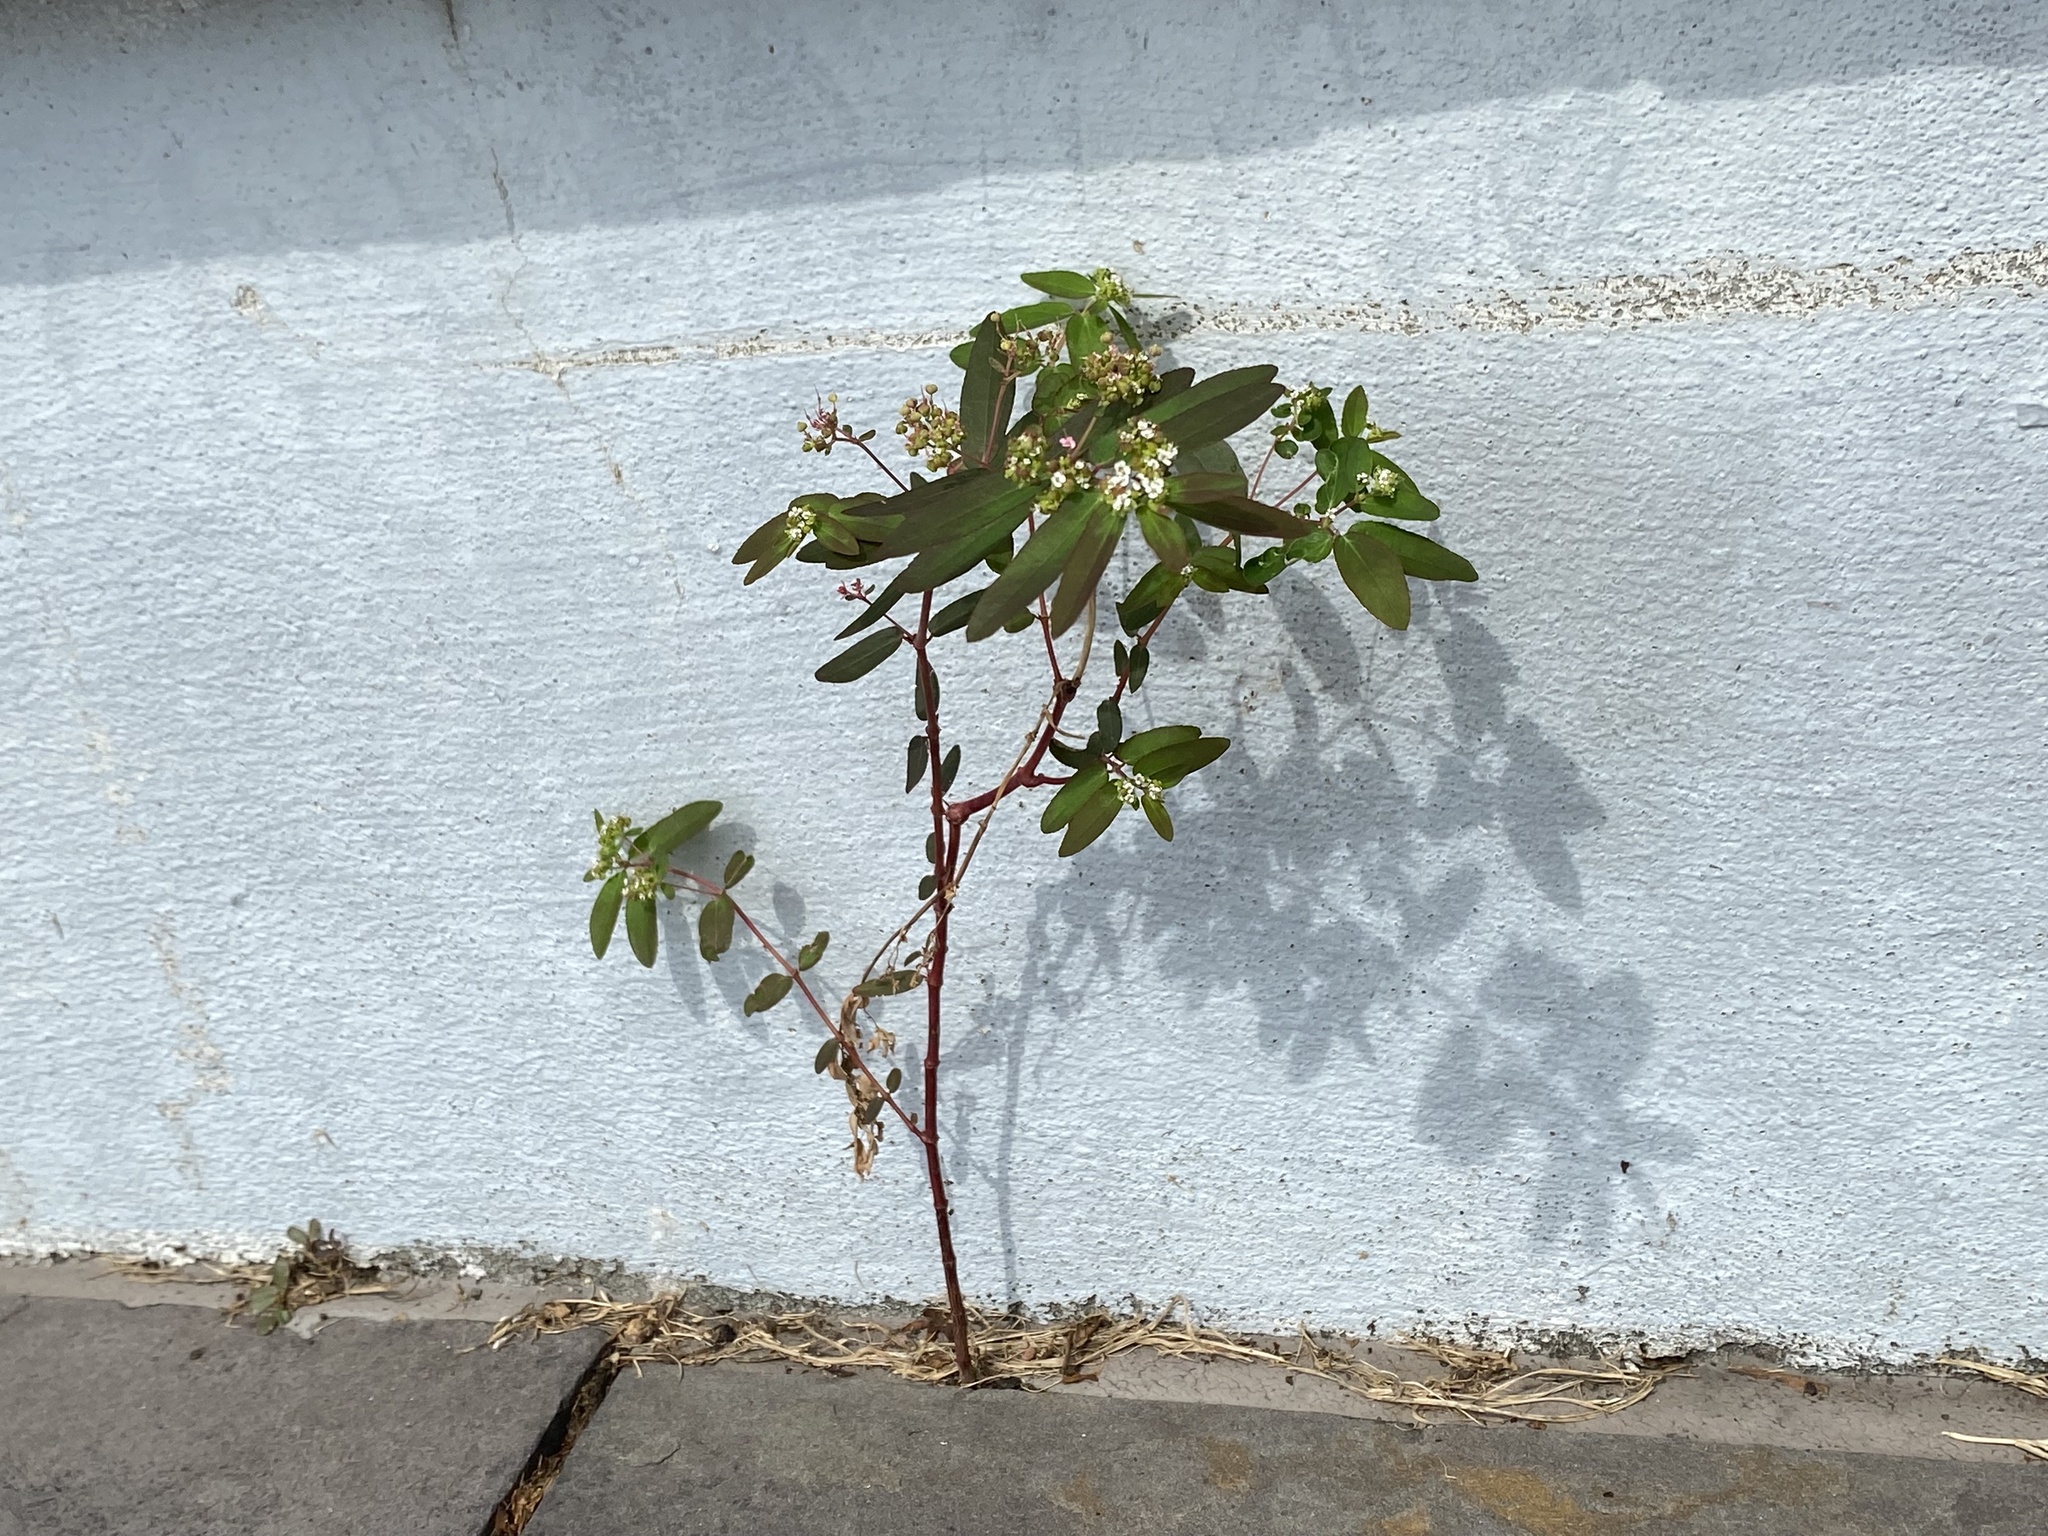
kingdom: Plantae
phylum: Tracheophyta
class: Magnoliopsida
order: Malpighiales
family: Euphorbiaceae
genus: Euphorbia
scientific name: Euphorbia hypericifolia
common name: Graceful sandmat
